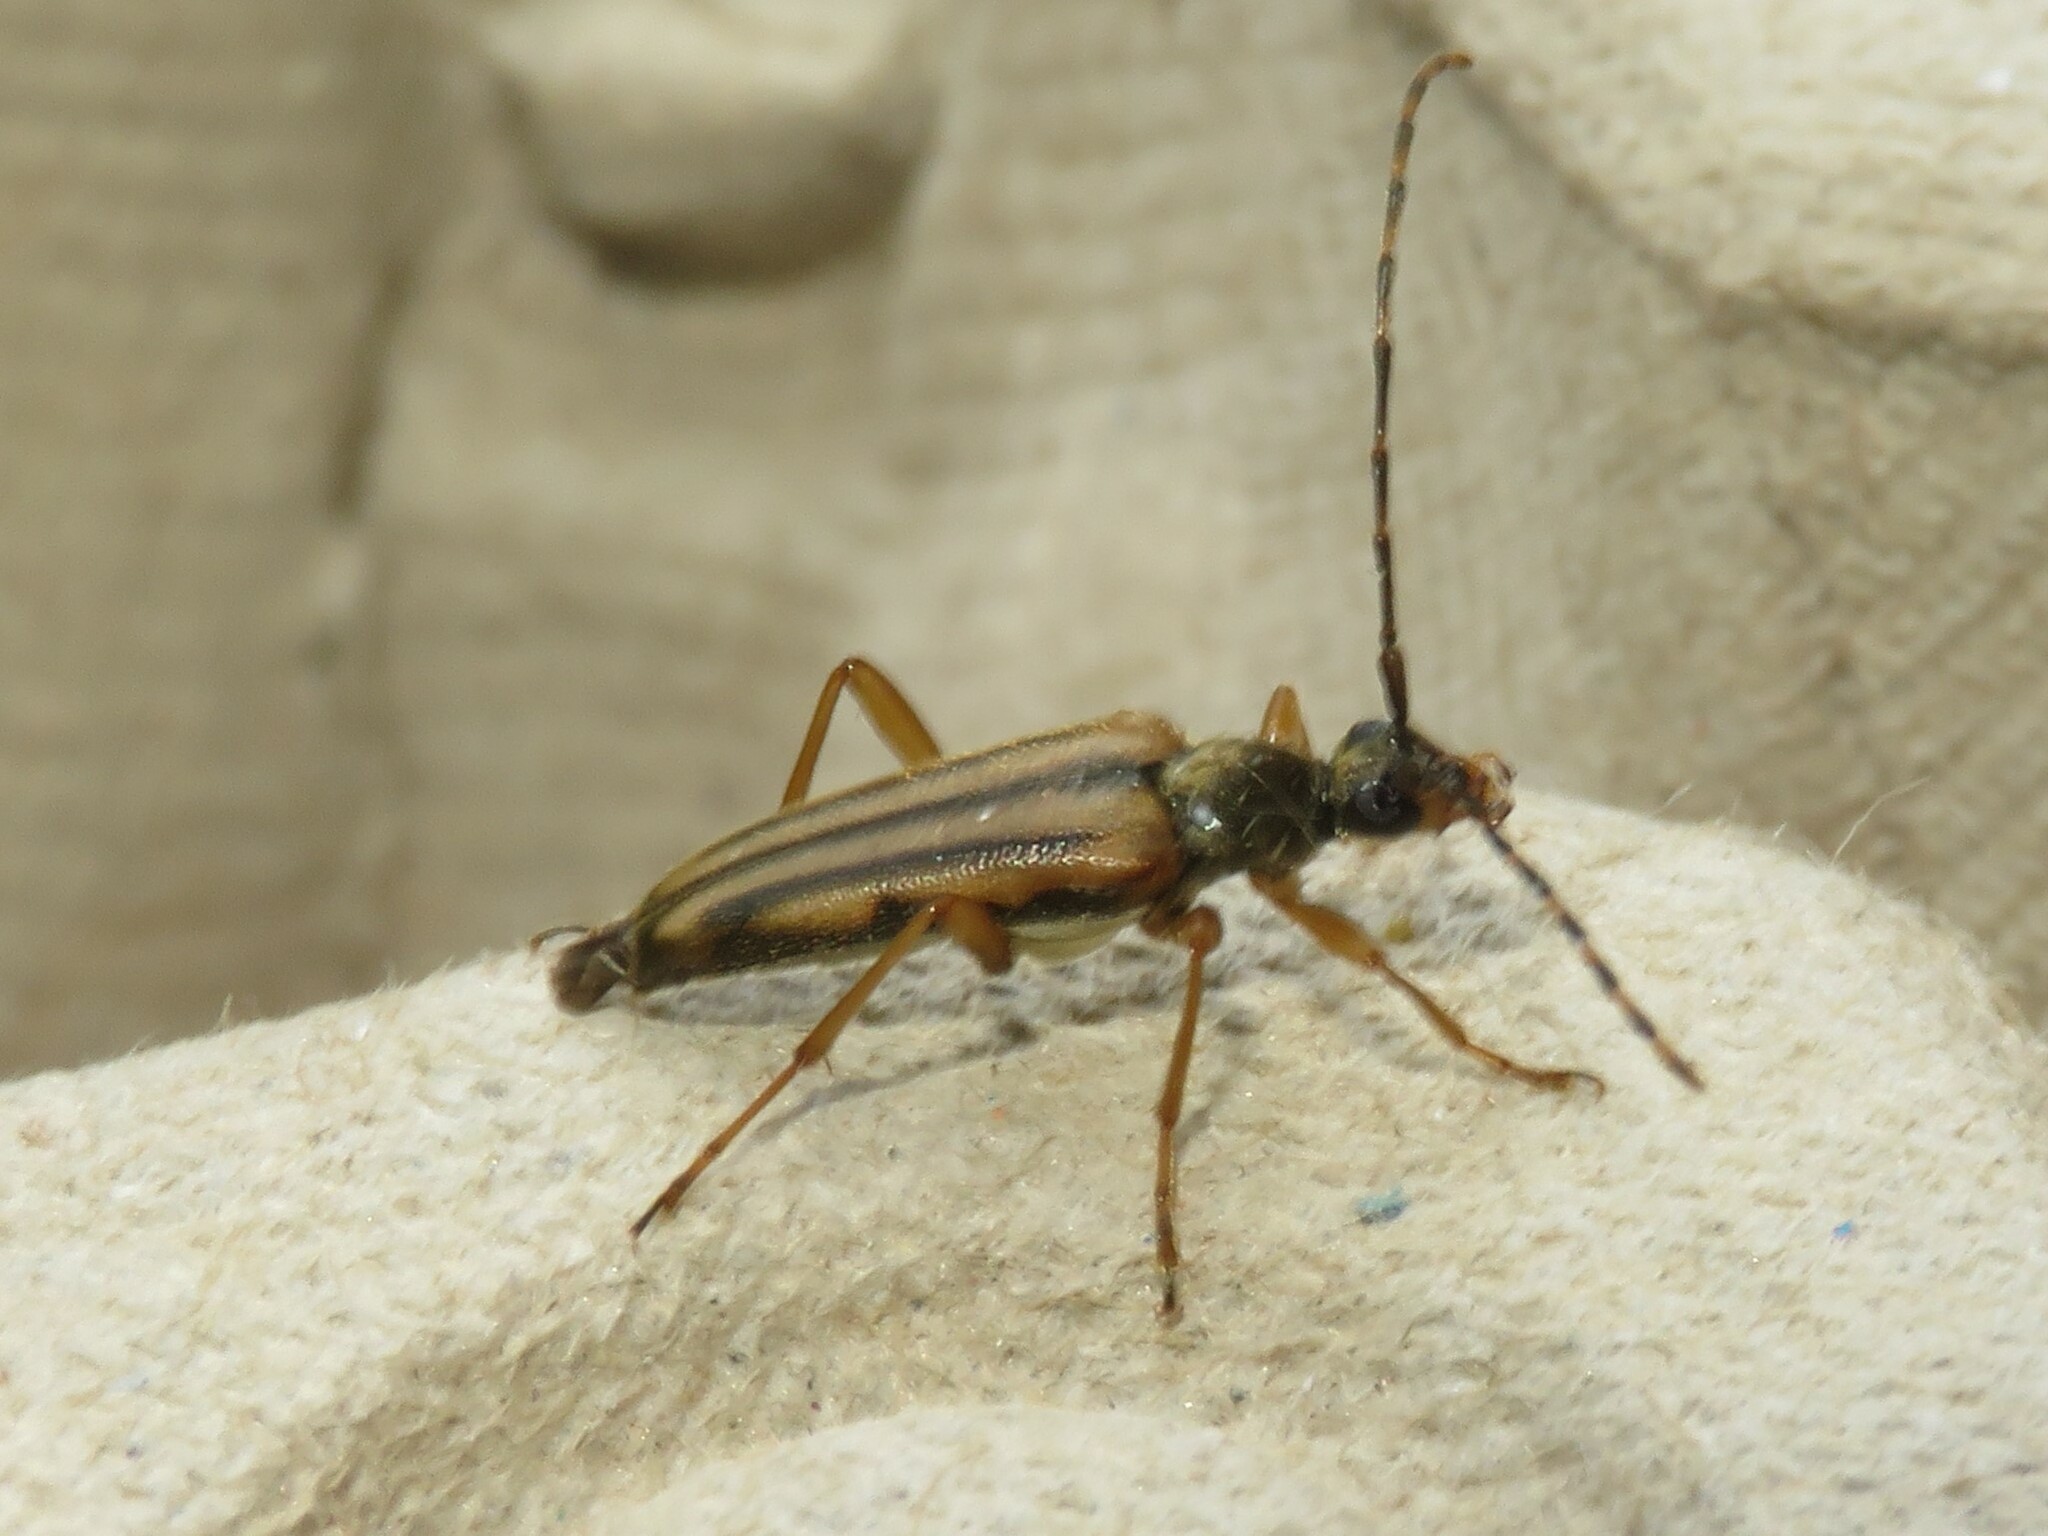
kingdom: Animalia
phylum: Arthropoda
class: Insecta
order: Coleoptera
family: Cerambycidae
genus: Analeptura
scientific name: Analeptura lineola
